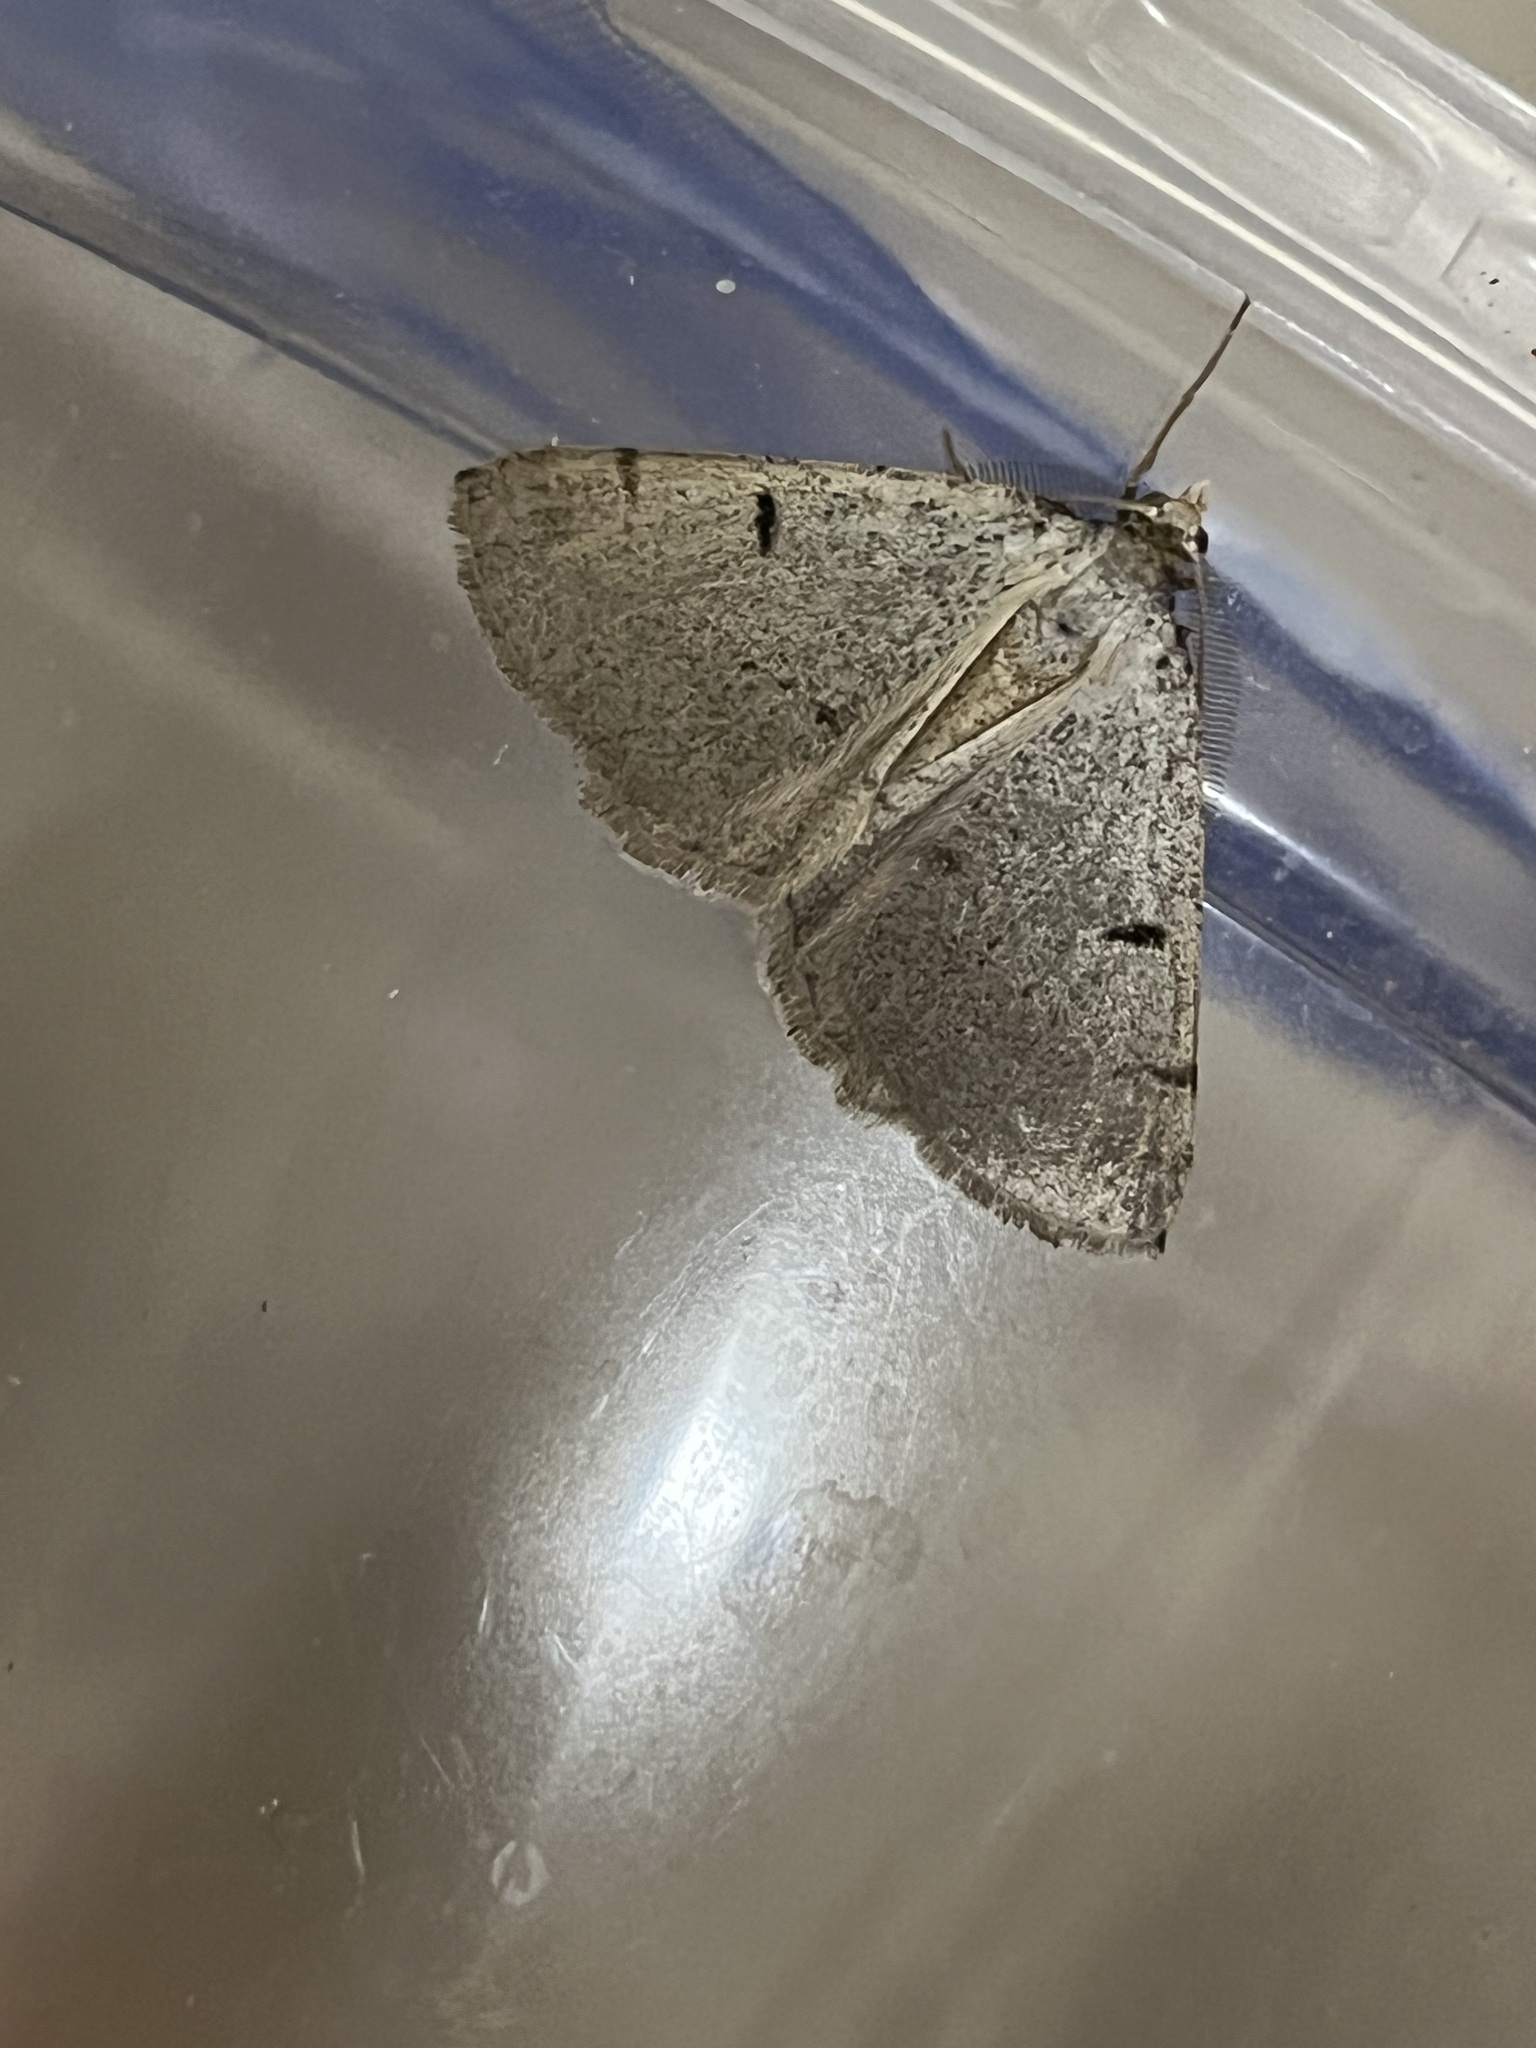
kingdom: Animalia
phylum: Arthropoda
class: Insecta
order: Lepidoptera
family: Geometridae
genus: Isturgia
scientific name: Isturgia berytaria
